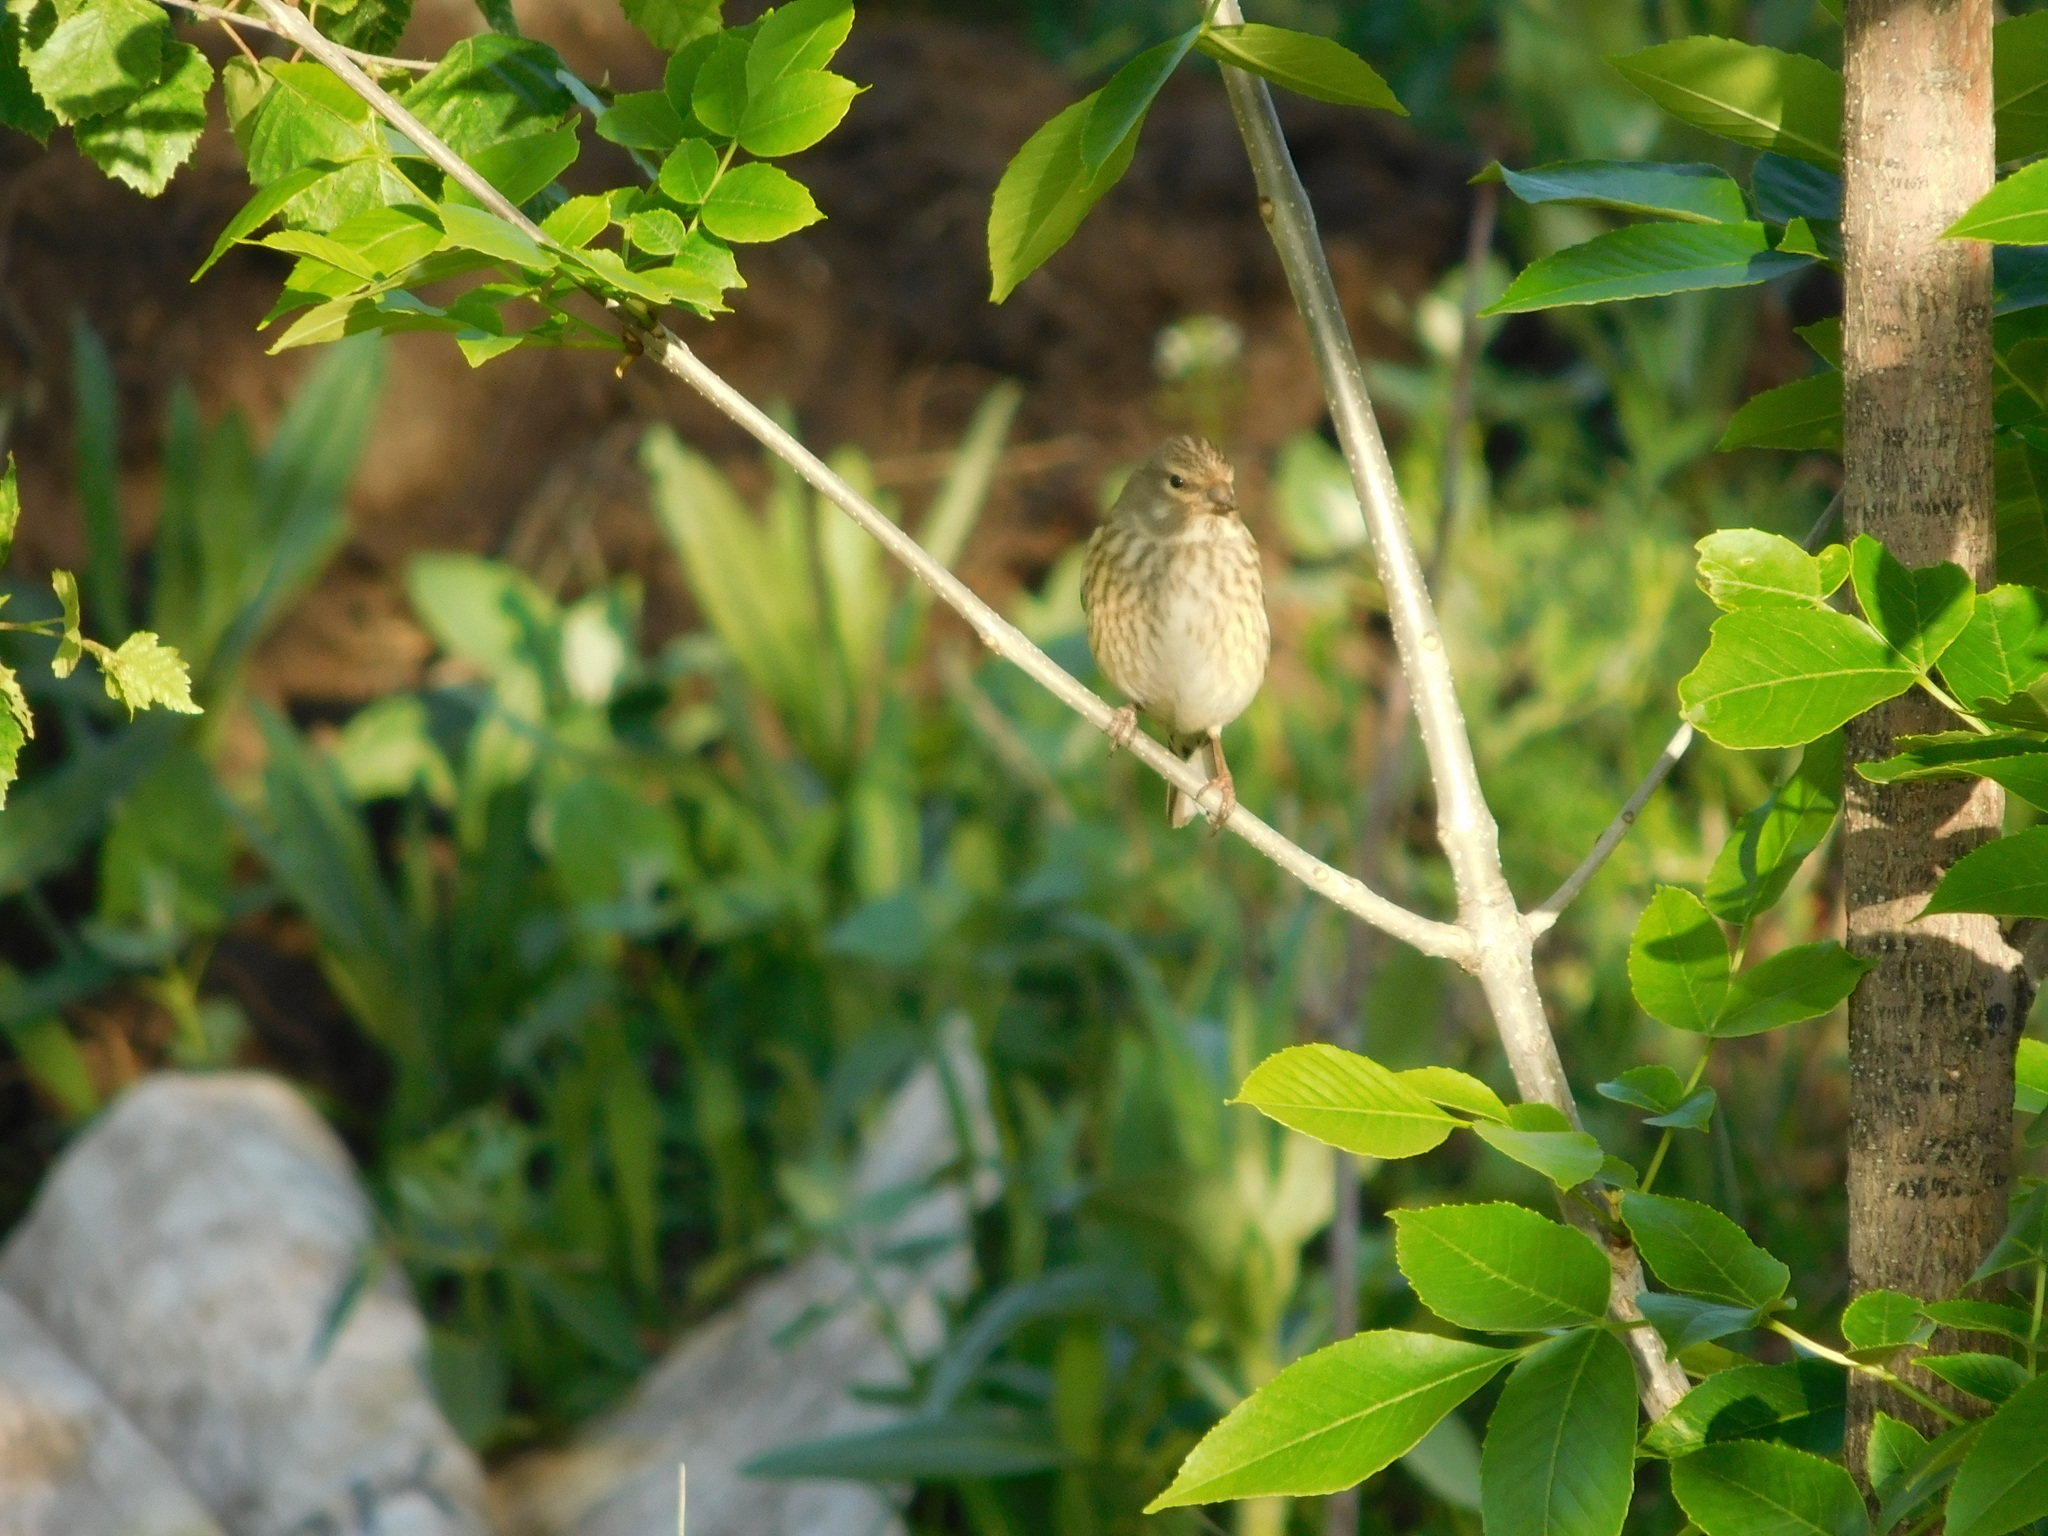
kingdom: Animalia
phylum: Chordata
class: Aves
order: Passeriformes
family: Fringillidae
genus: Linaria
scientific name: Linaria cannabina
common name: Common linnet
